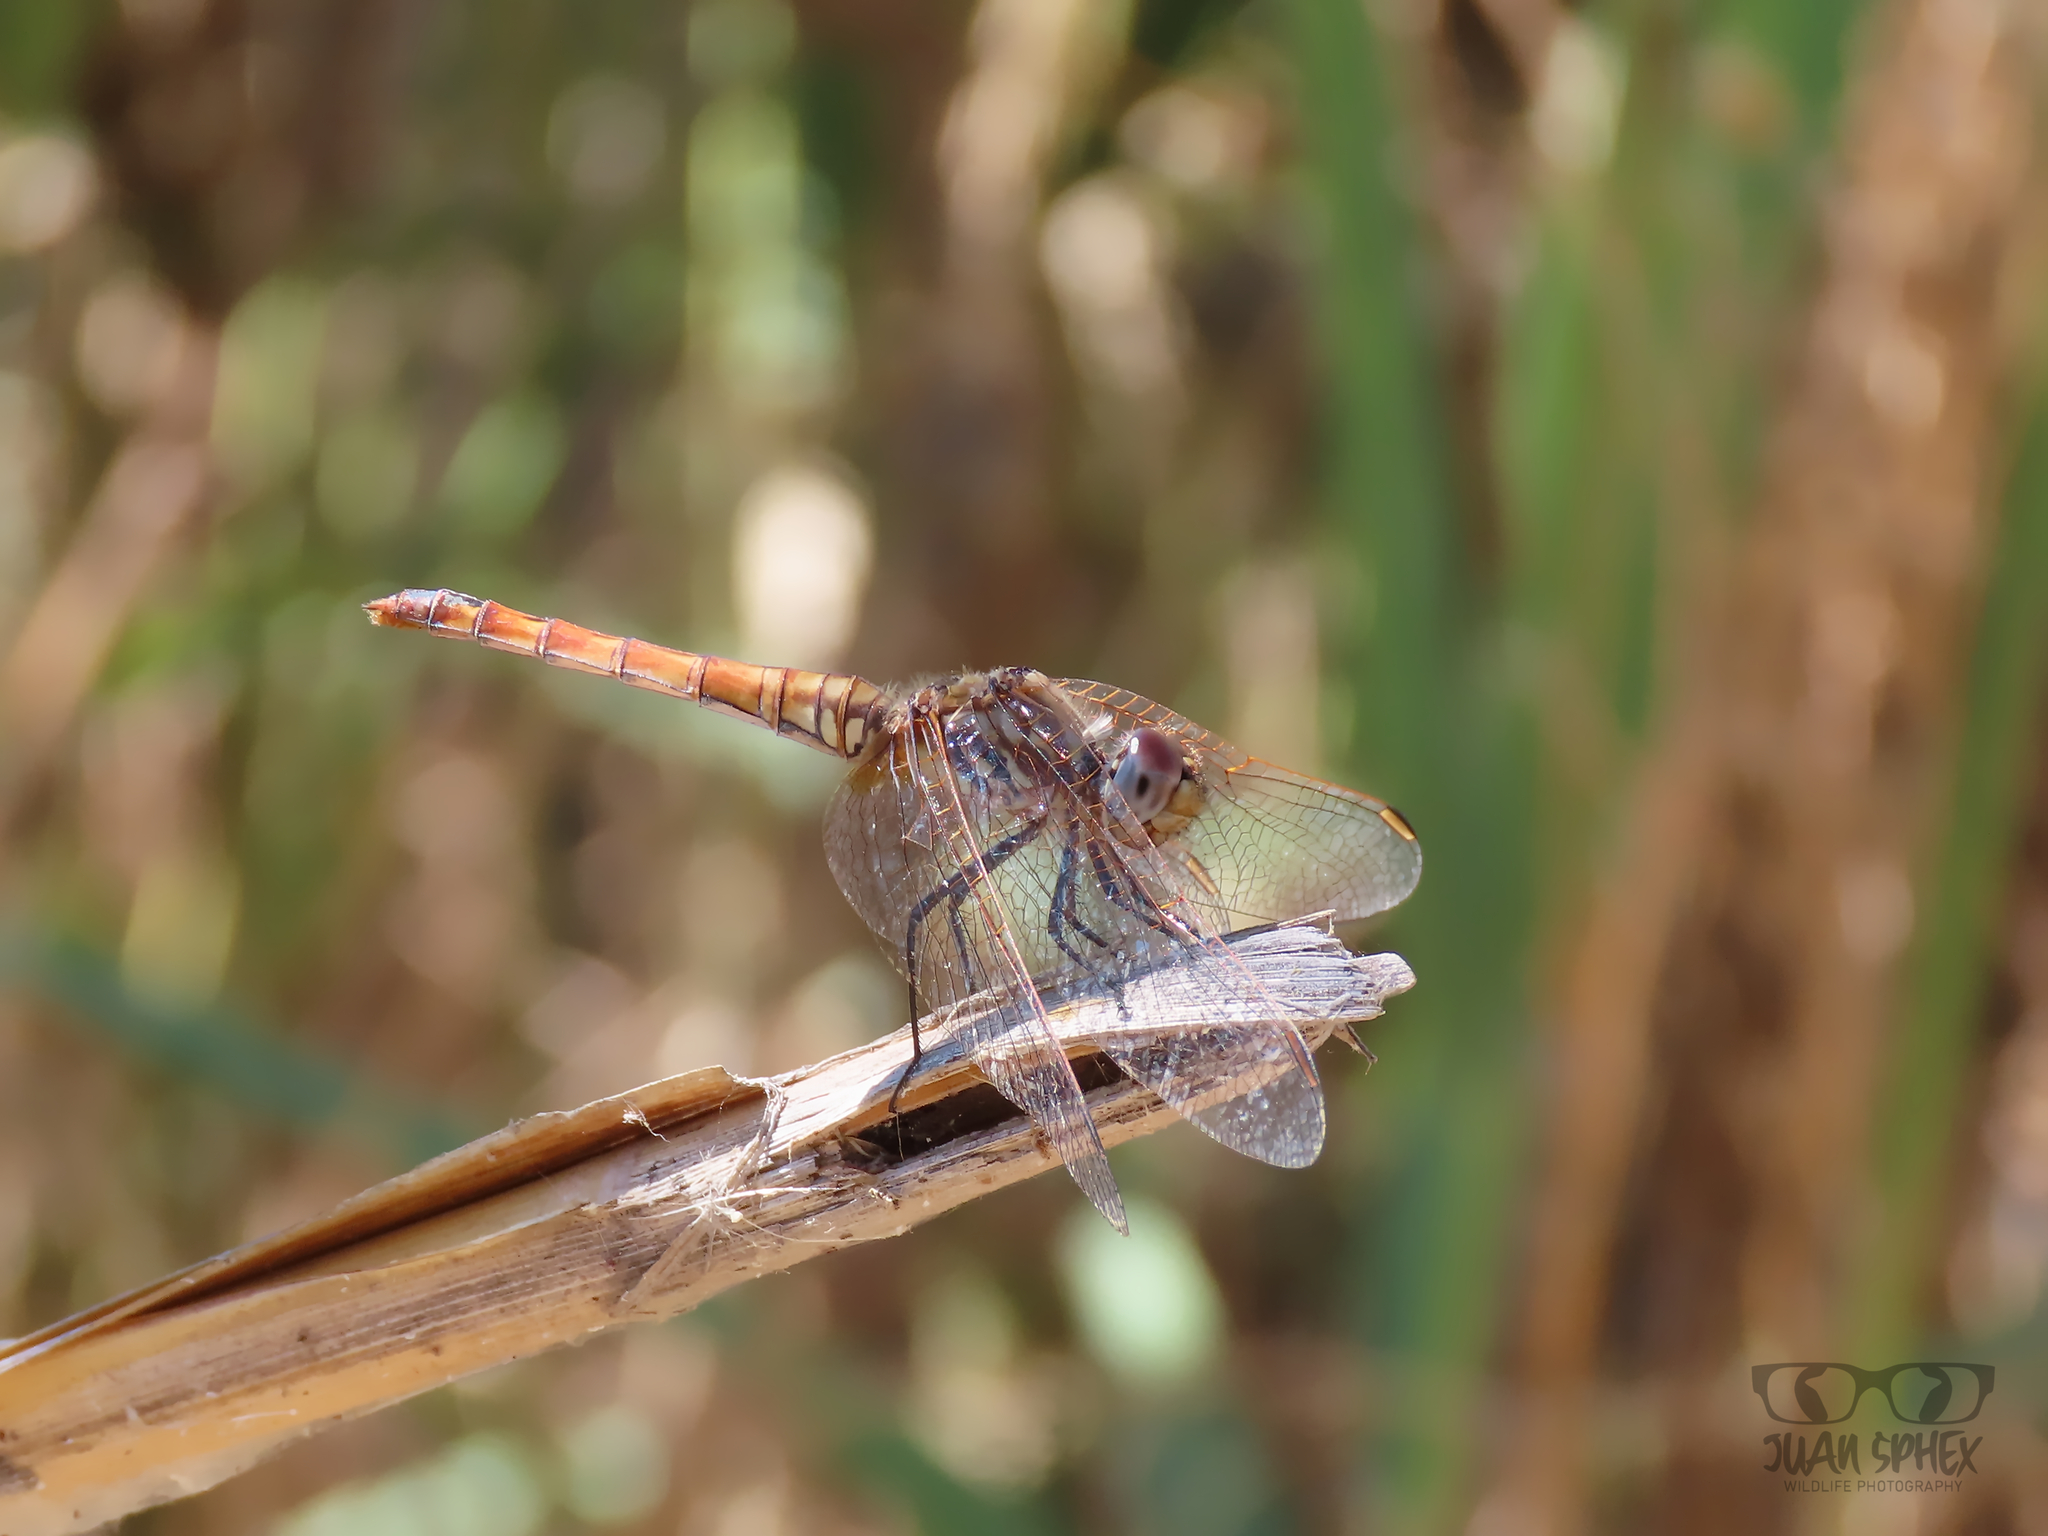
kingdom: Animalia
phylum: Arthropoda
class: Insecta
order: Odonata
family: Libellulidae
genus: Trithemis
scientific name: Trithemis annulata
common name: Violet dropwing
